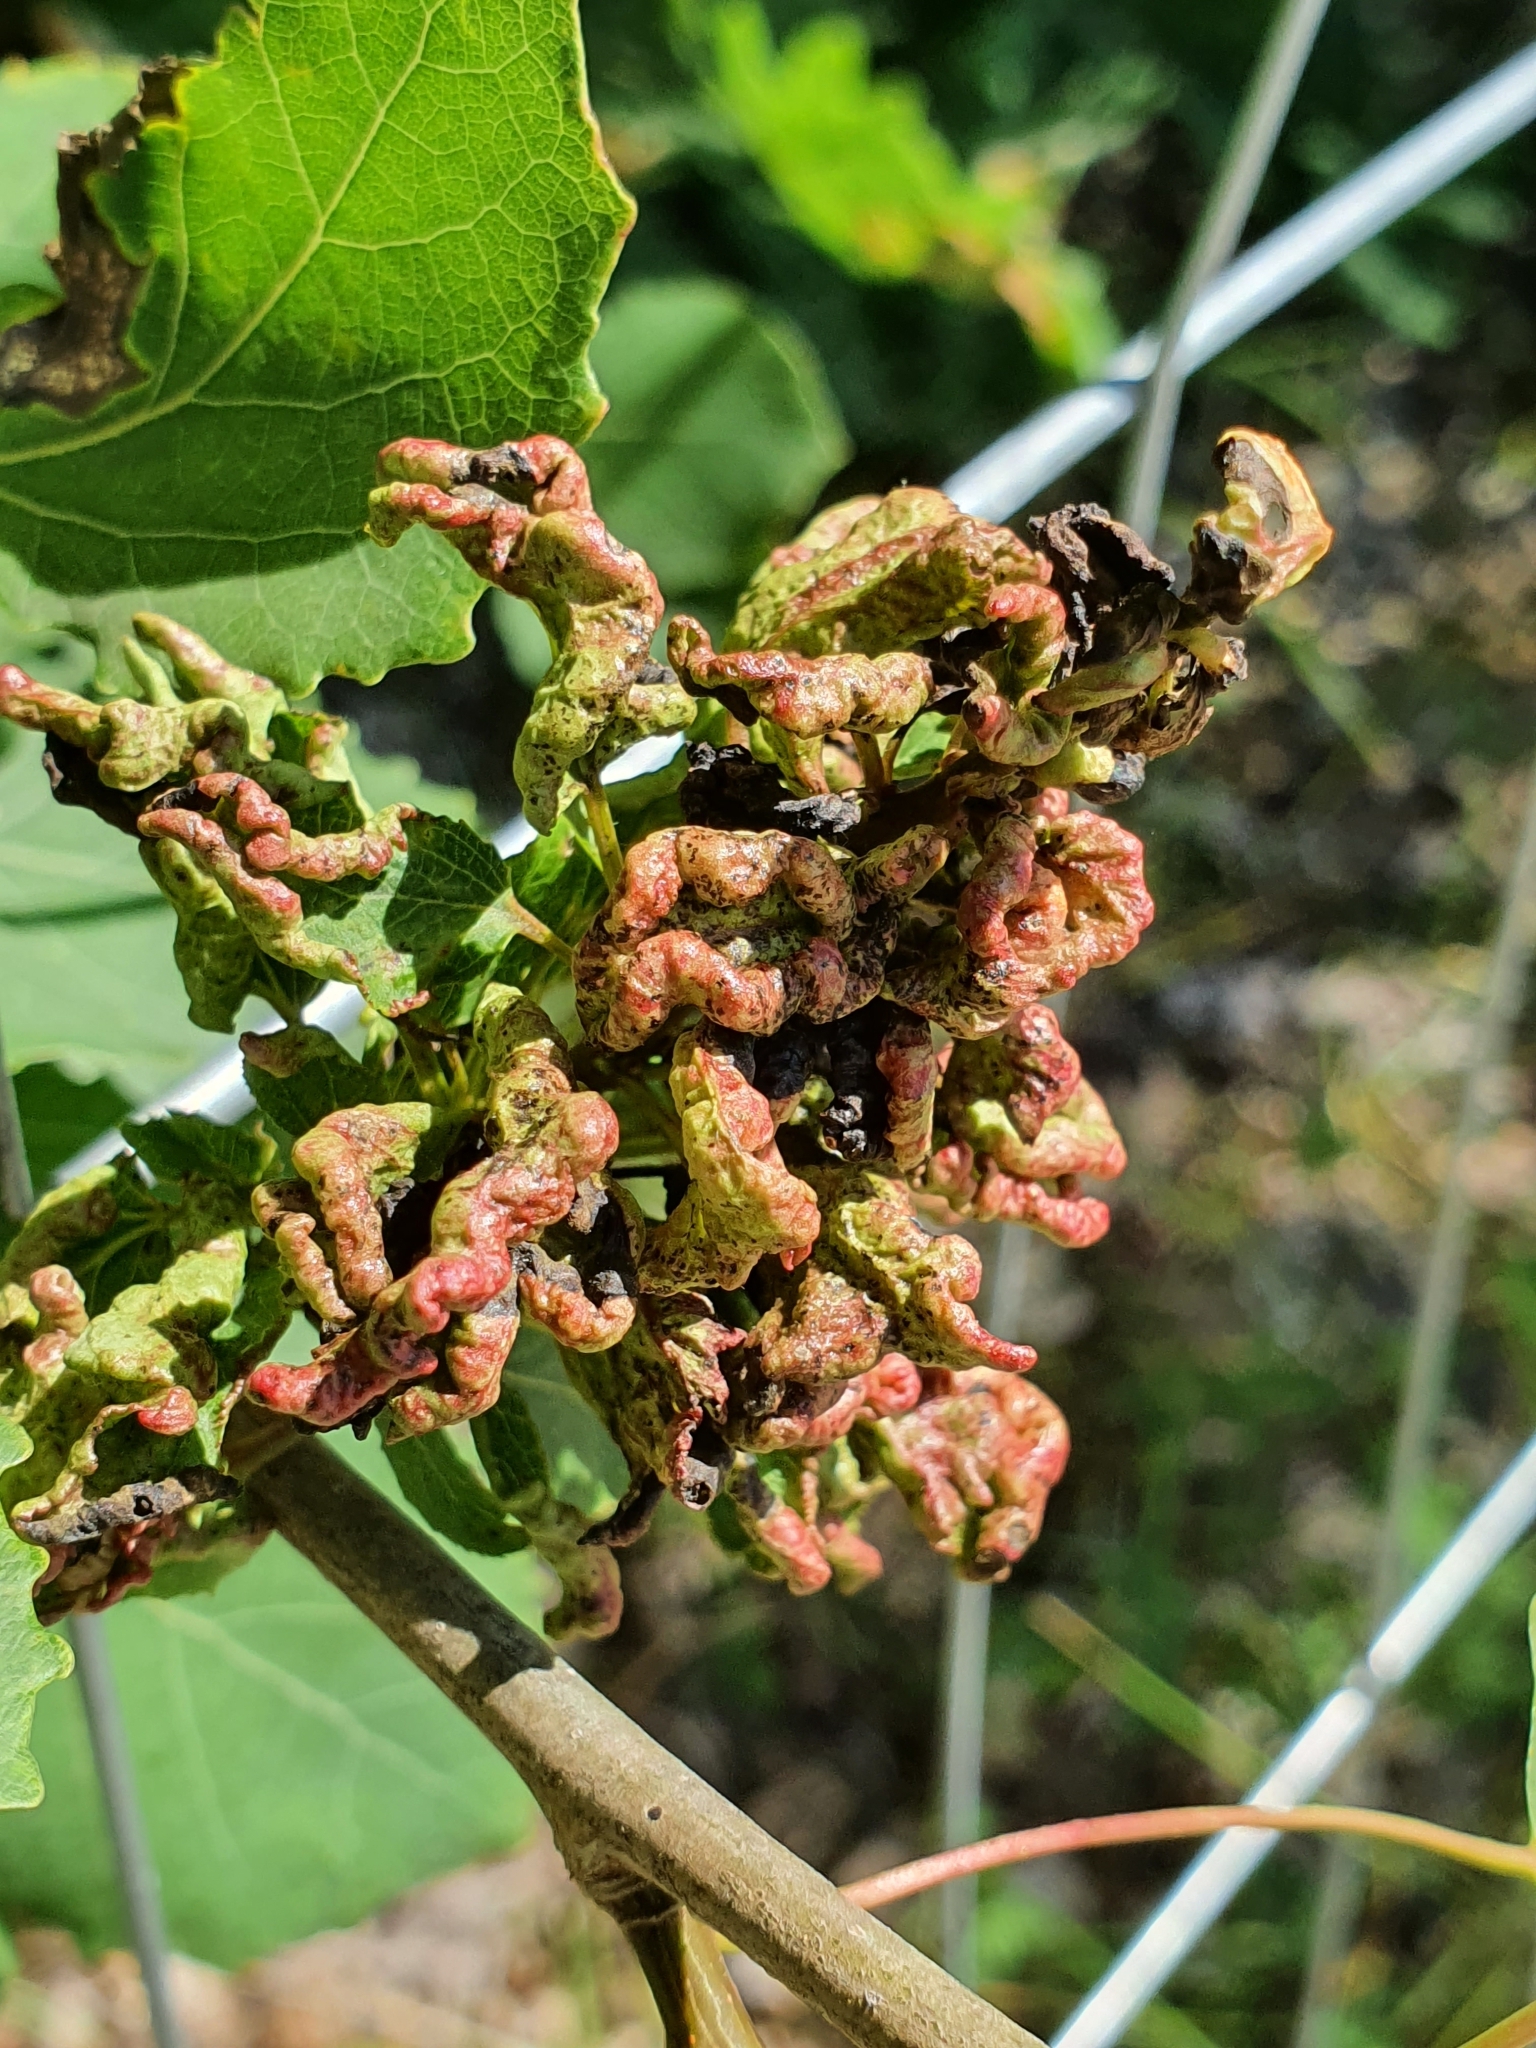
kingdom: Animalia
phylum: Arthropoda
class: Arachnida
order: Trombidiformes
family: Eriophyidae
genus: Aceria
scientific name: Aceria dispar
